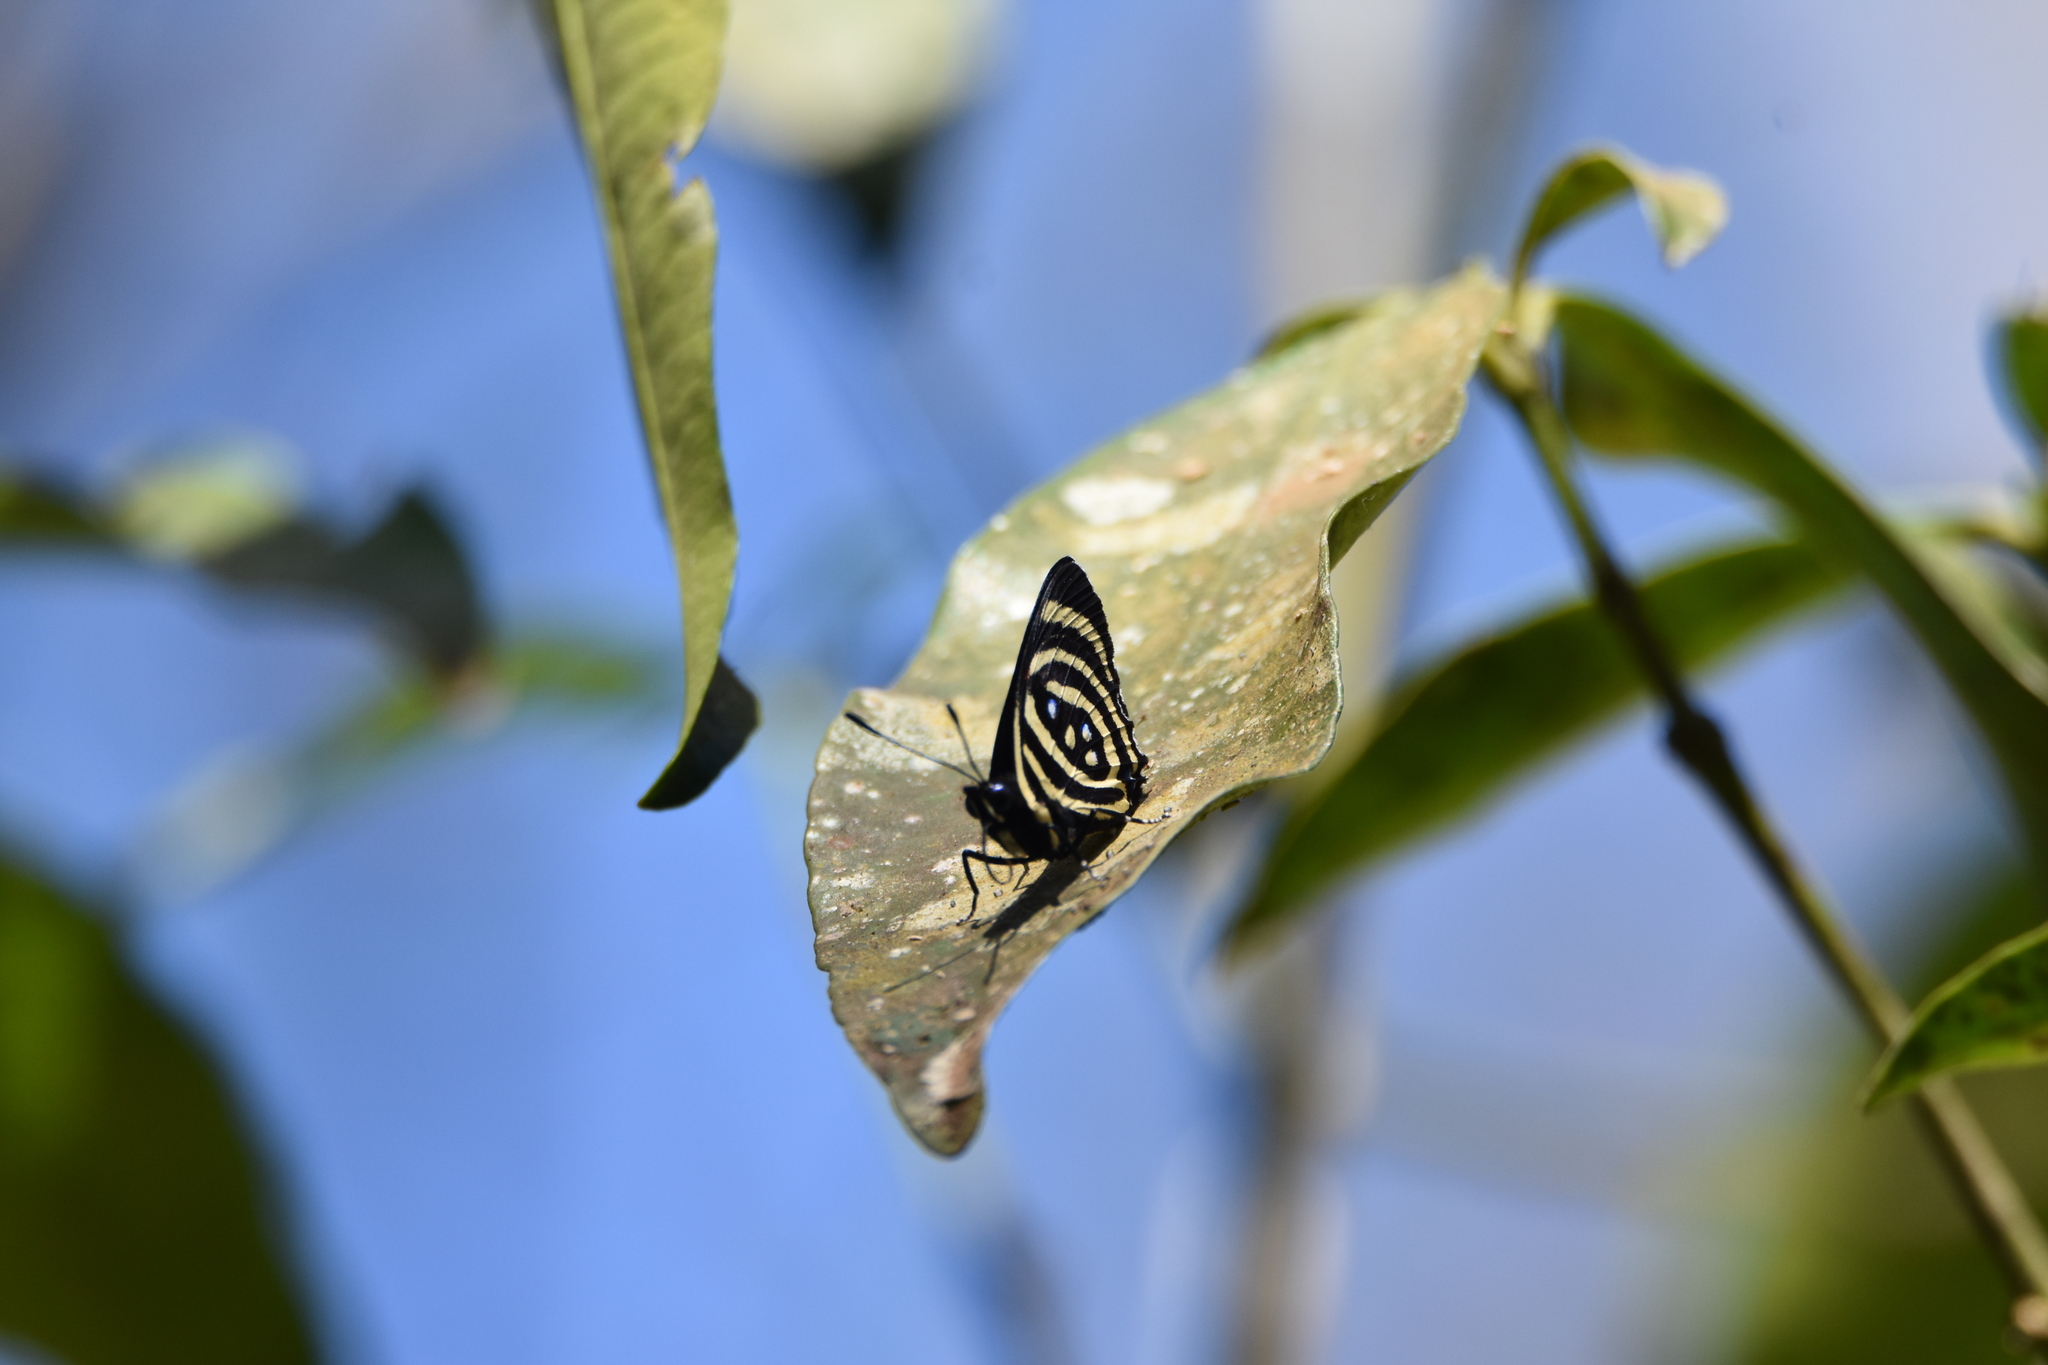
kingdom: Animalia
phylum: Arthropoda
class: Insecta
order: Lepidoptera
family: Nymphalidae
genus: Catagramma
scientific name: Catagramma Callicore hydaspes
